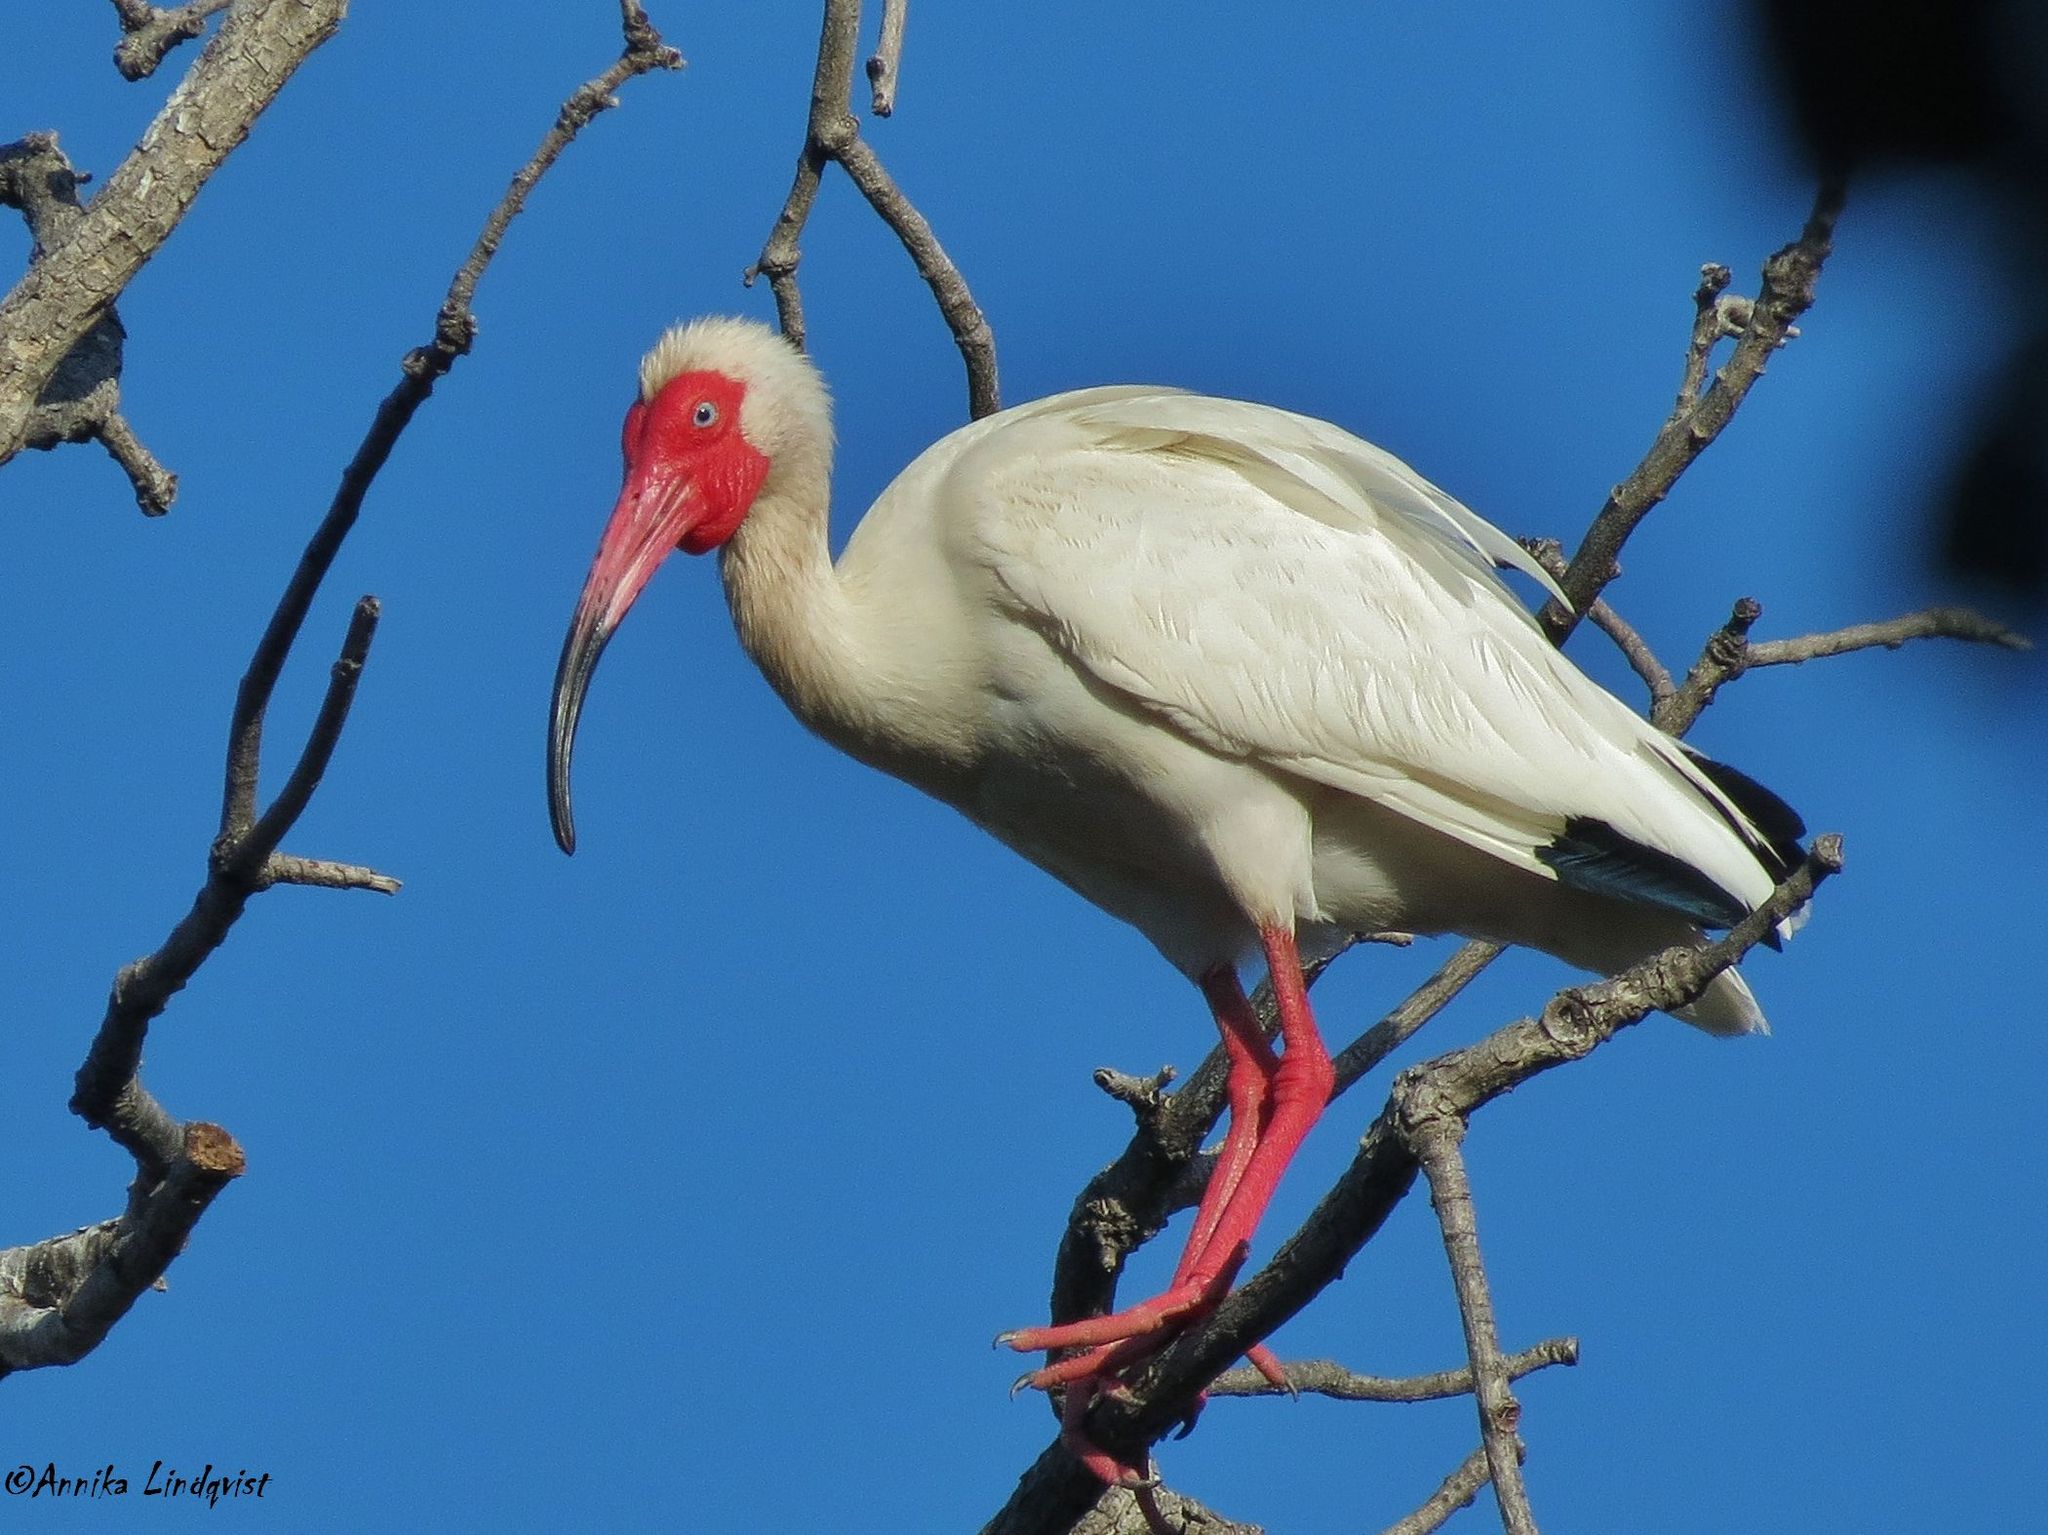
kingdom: Animalia
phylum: Chordata
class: Aves
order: Pelecaniformes
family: Threskiornithidae
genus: Eudocimus
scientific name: Eudocimus albus
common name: White ibis
